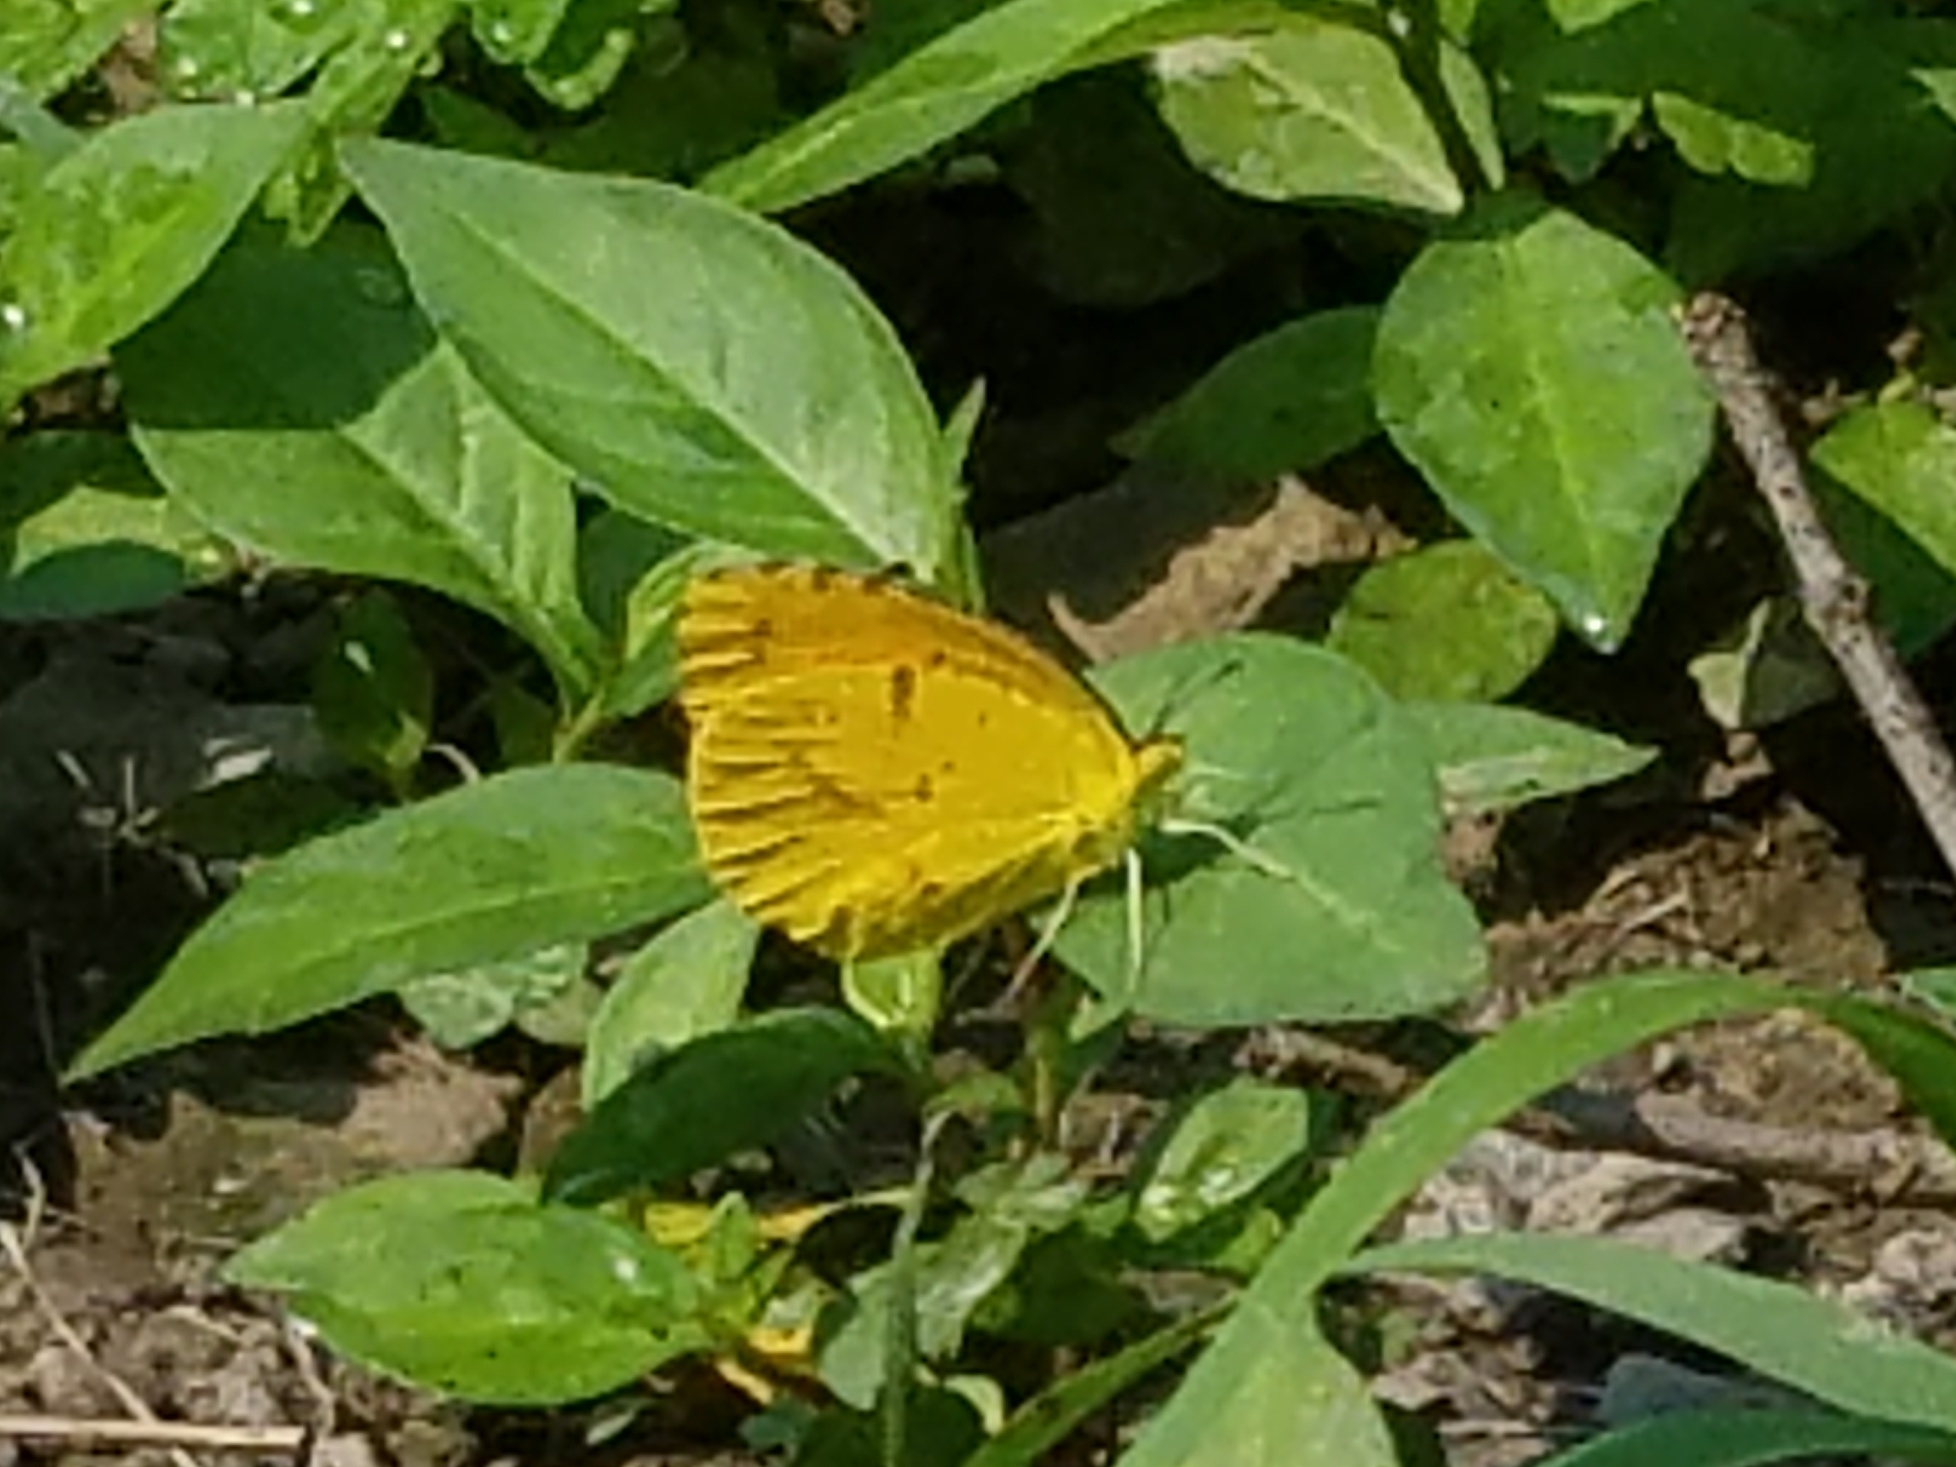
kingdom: Animalia
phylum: Arthropoda
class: Insecta
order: Lepidoptera
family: Pieridae
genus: Abaeis
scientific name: Abaeis nicippe
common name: Sleepy orange
